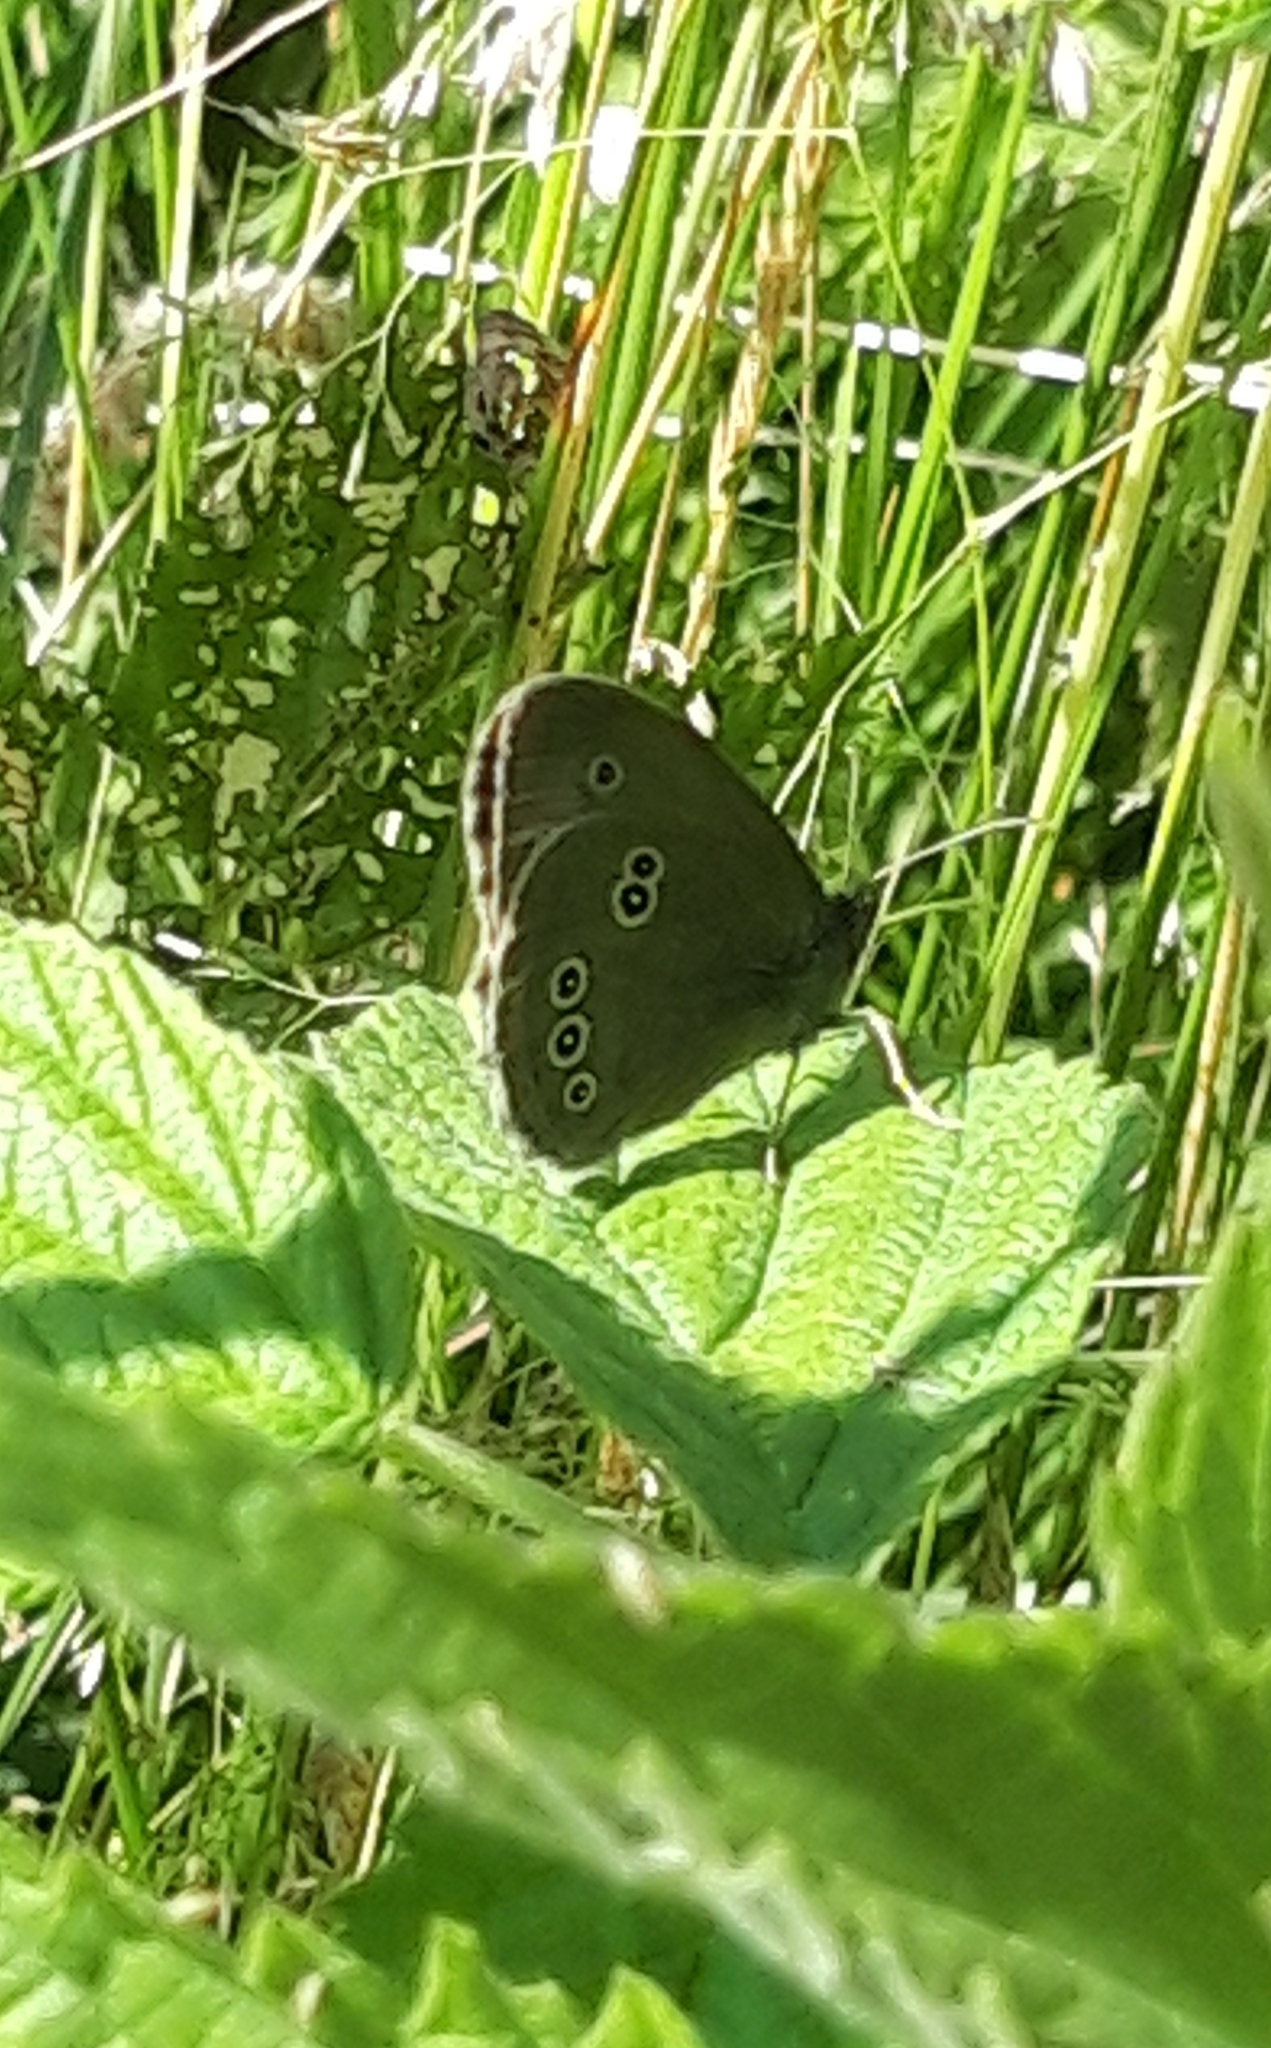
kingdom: Animalia
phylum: Arthropoda
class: Insecta
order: Lepidoptera
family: Nymphalidae
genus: Aphantopus
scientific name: Aphantopus hyperantus
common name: Ringlet
